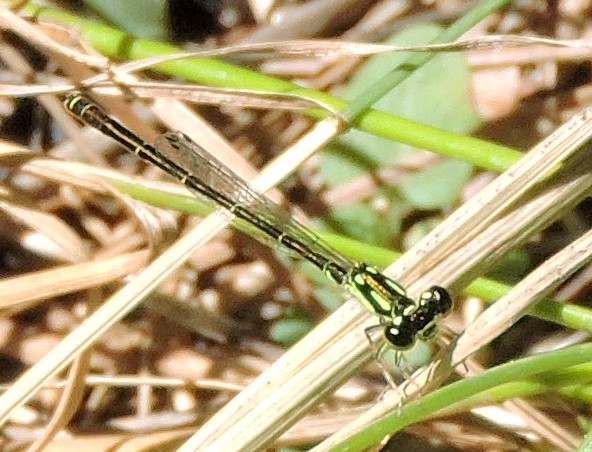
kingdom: Animalia
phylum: Arthropoda
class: Insecta
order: Odonata
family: Coenagrionidae
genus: Ischnura
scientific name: Ischnura posita
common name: Fragile forktail
